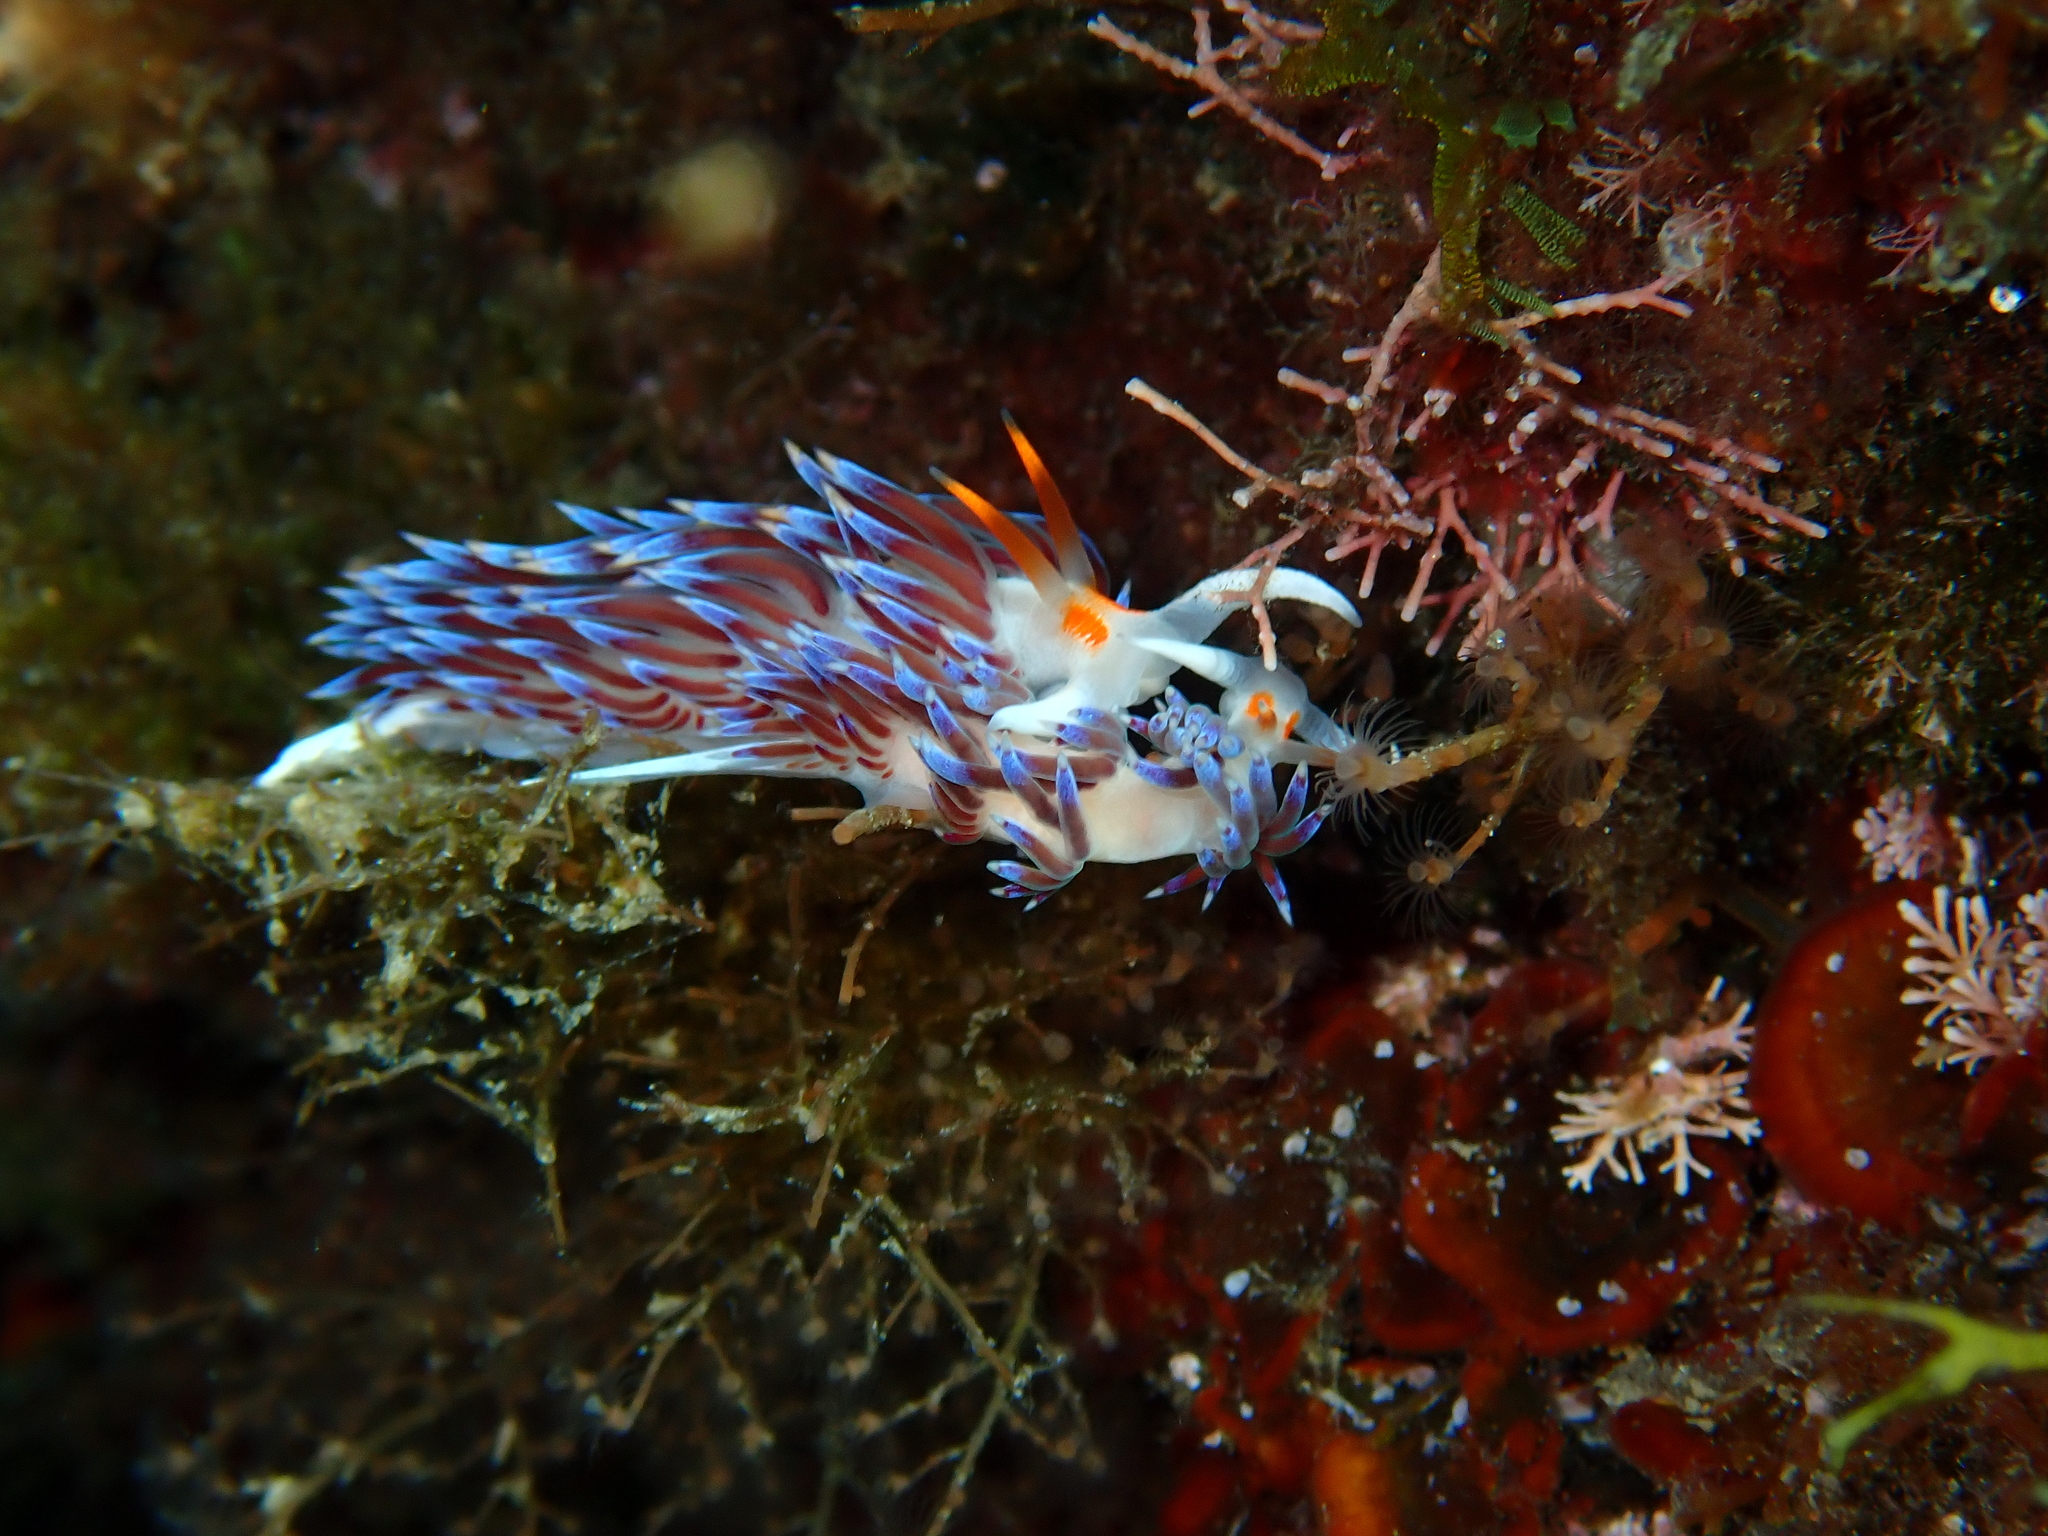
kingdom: Animalia
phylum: Mollusca
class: Gastropoda
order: Nudibranchia
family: Facelinidae
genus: Cratena
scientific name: Cratena peregrina
